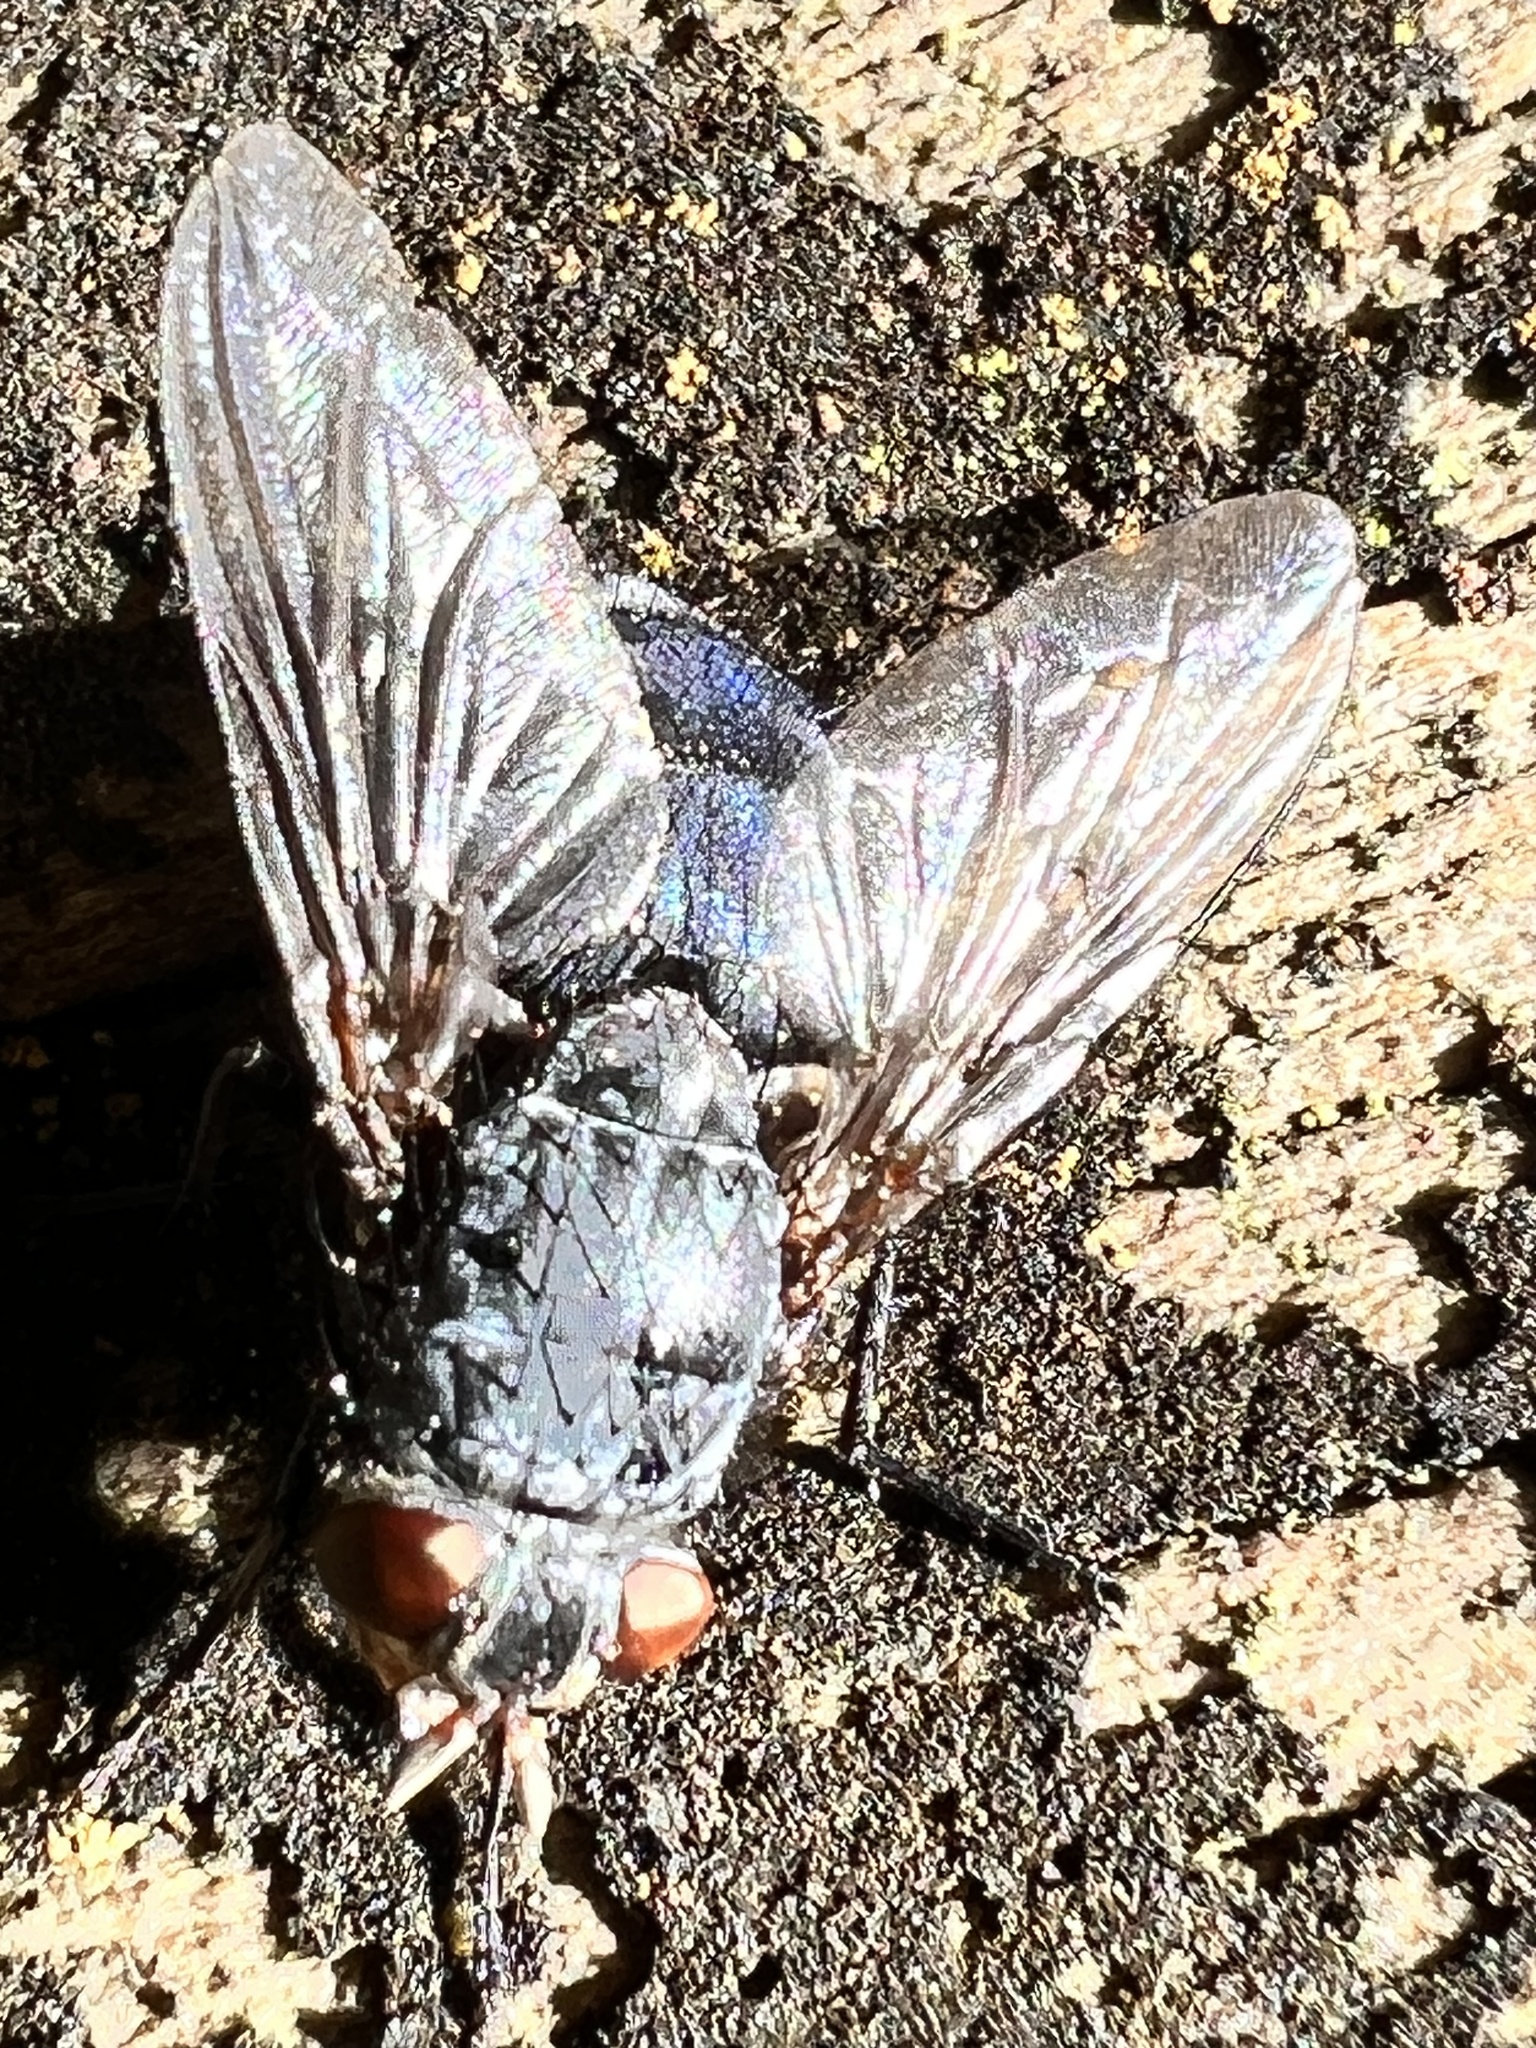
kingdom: Animalia
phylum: Arthropoda
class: Insecta
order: Diptera
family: Calliphoridae
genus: Calliphora
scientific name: Calliphora vicina
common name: Common blow flie
